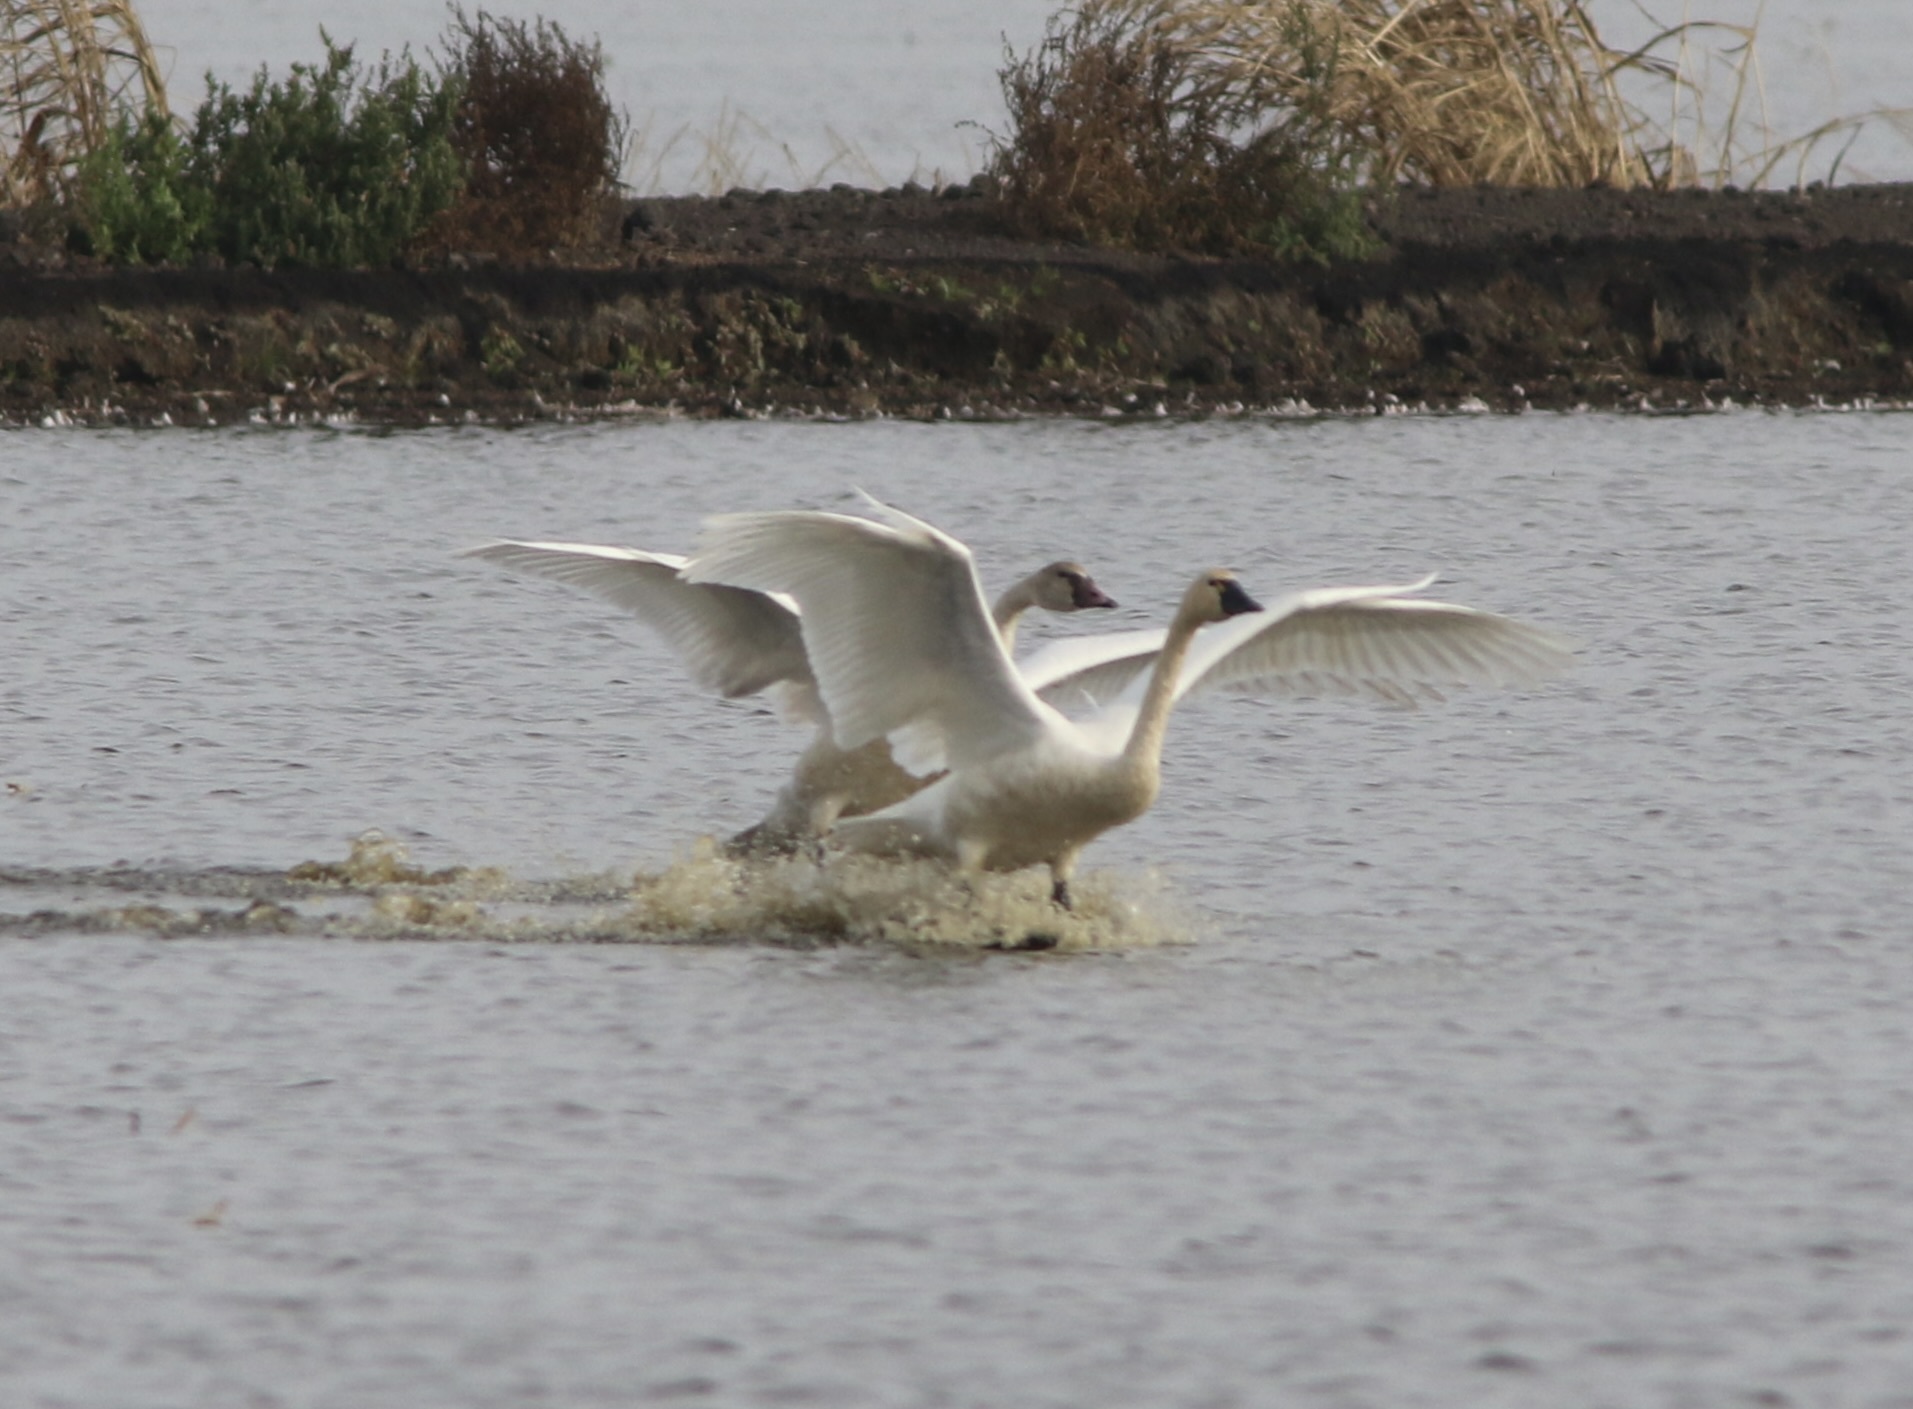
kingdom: Animalia
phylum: Chordata
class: Aves
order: Anseriformes
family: Anatidae
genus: Cygnus
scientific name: Cygnus columbianus
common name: Tundra swan
